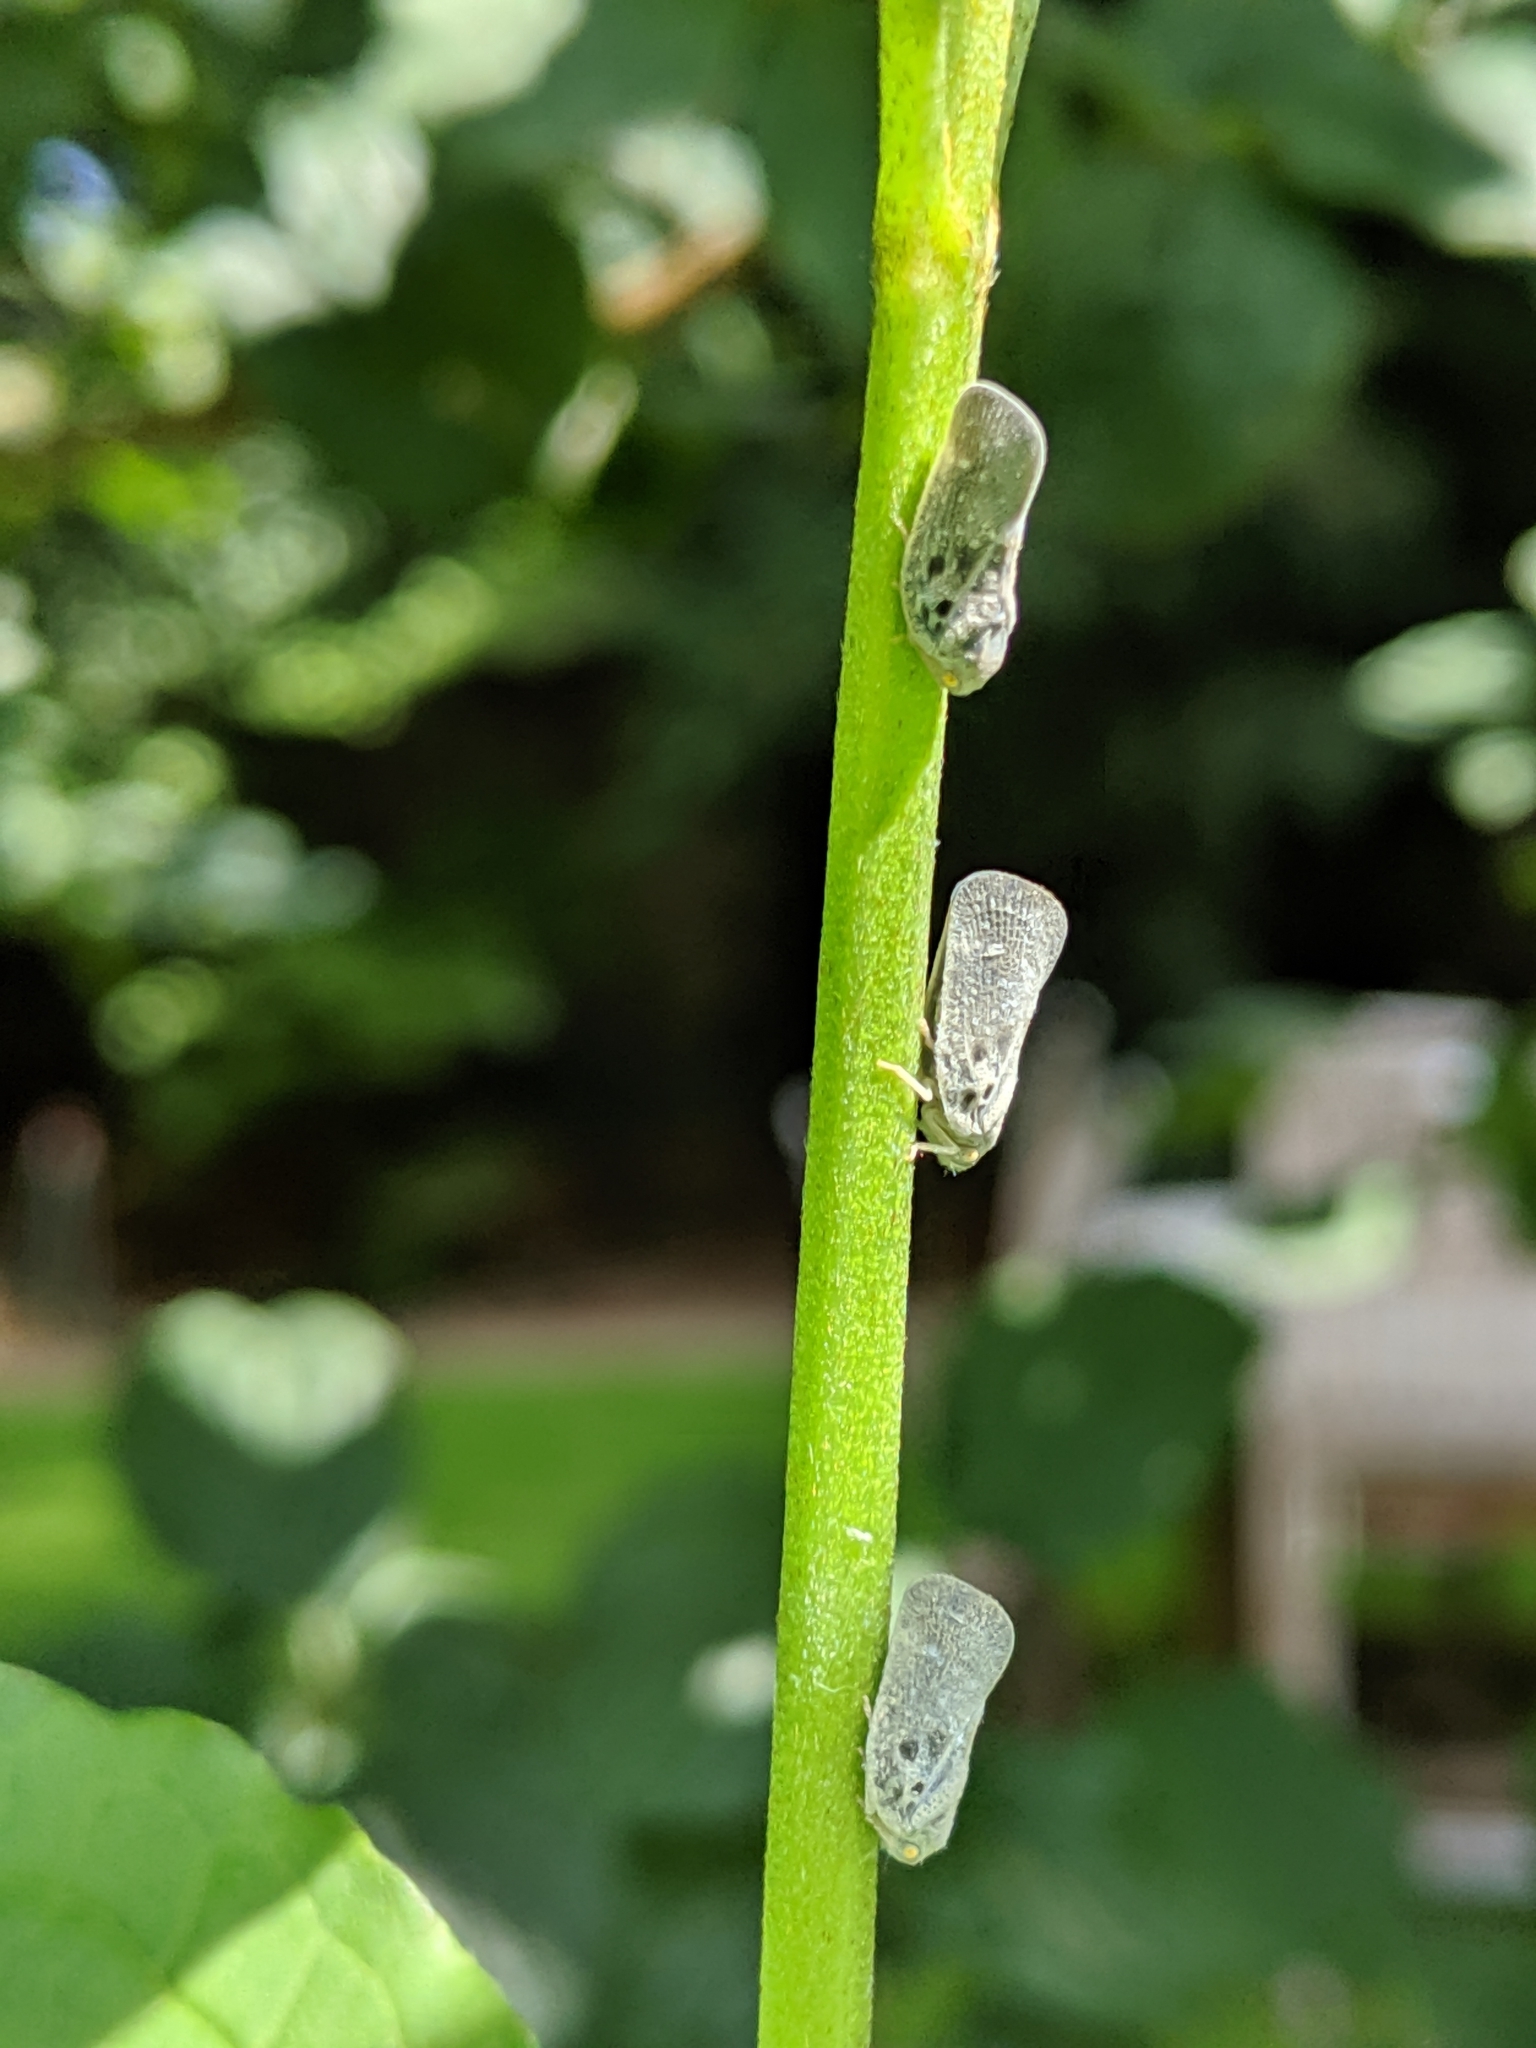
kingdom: Animalia
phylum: Arthropoda
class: Insecta
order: Hemiptera
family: Flatidae
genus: Metcalfa
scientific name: Metcalfa pruinosa
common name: Citrus flatid planthopper
